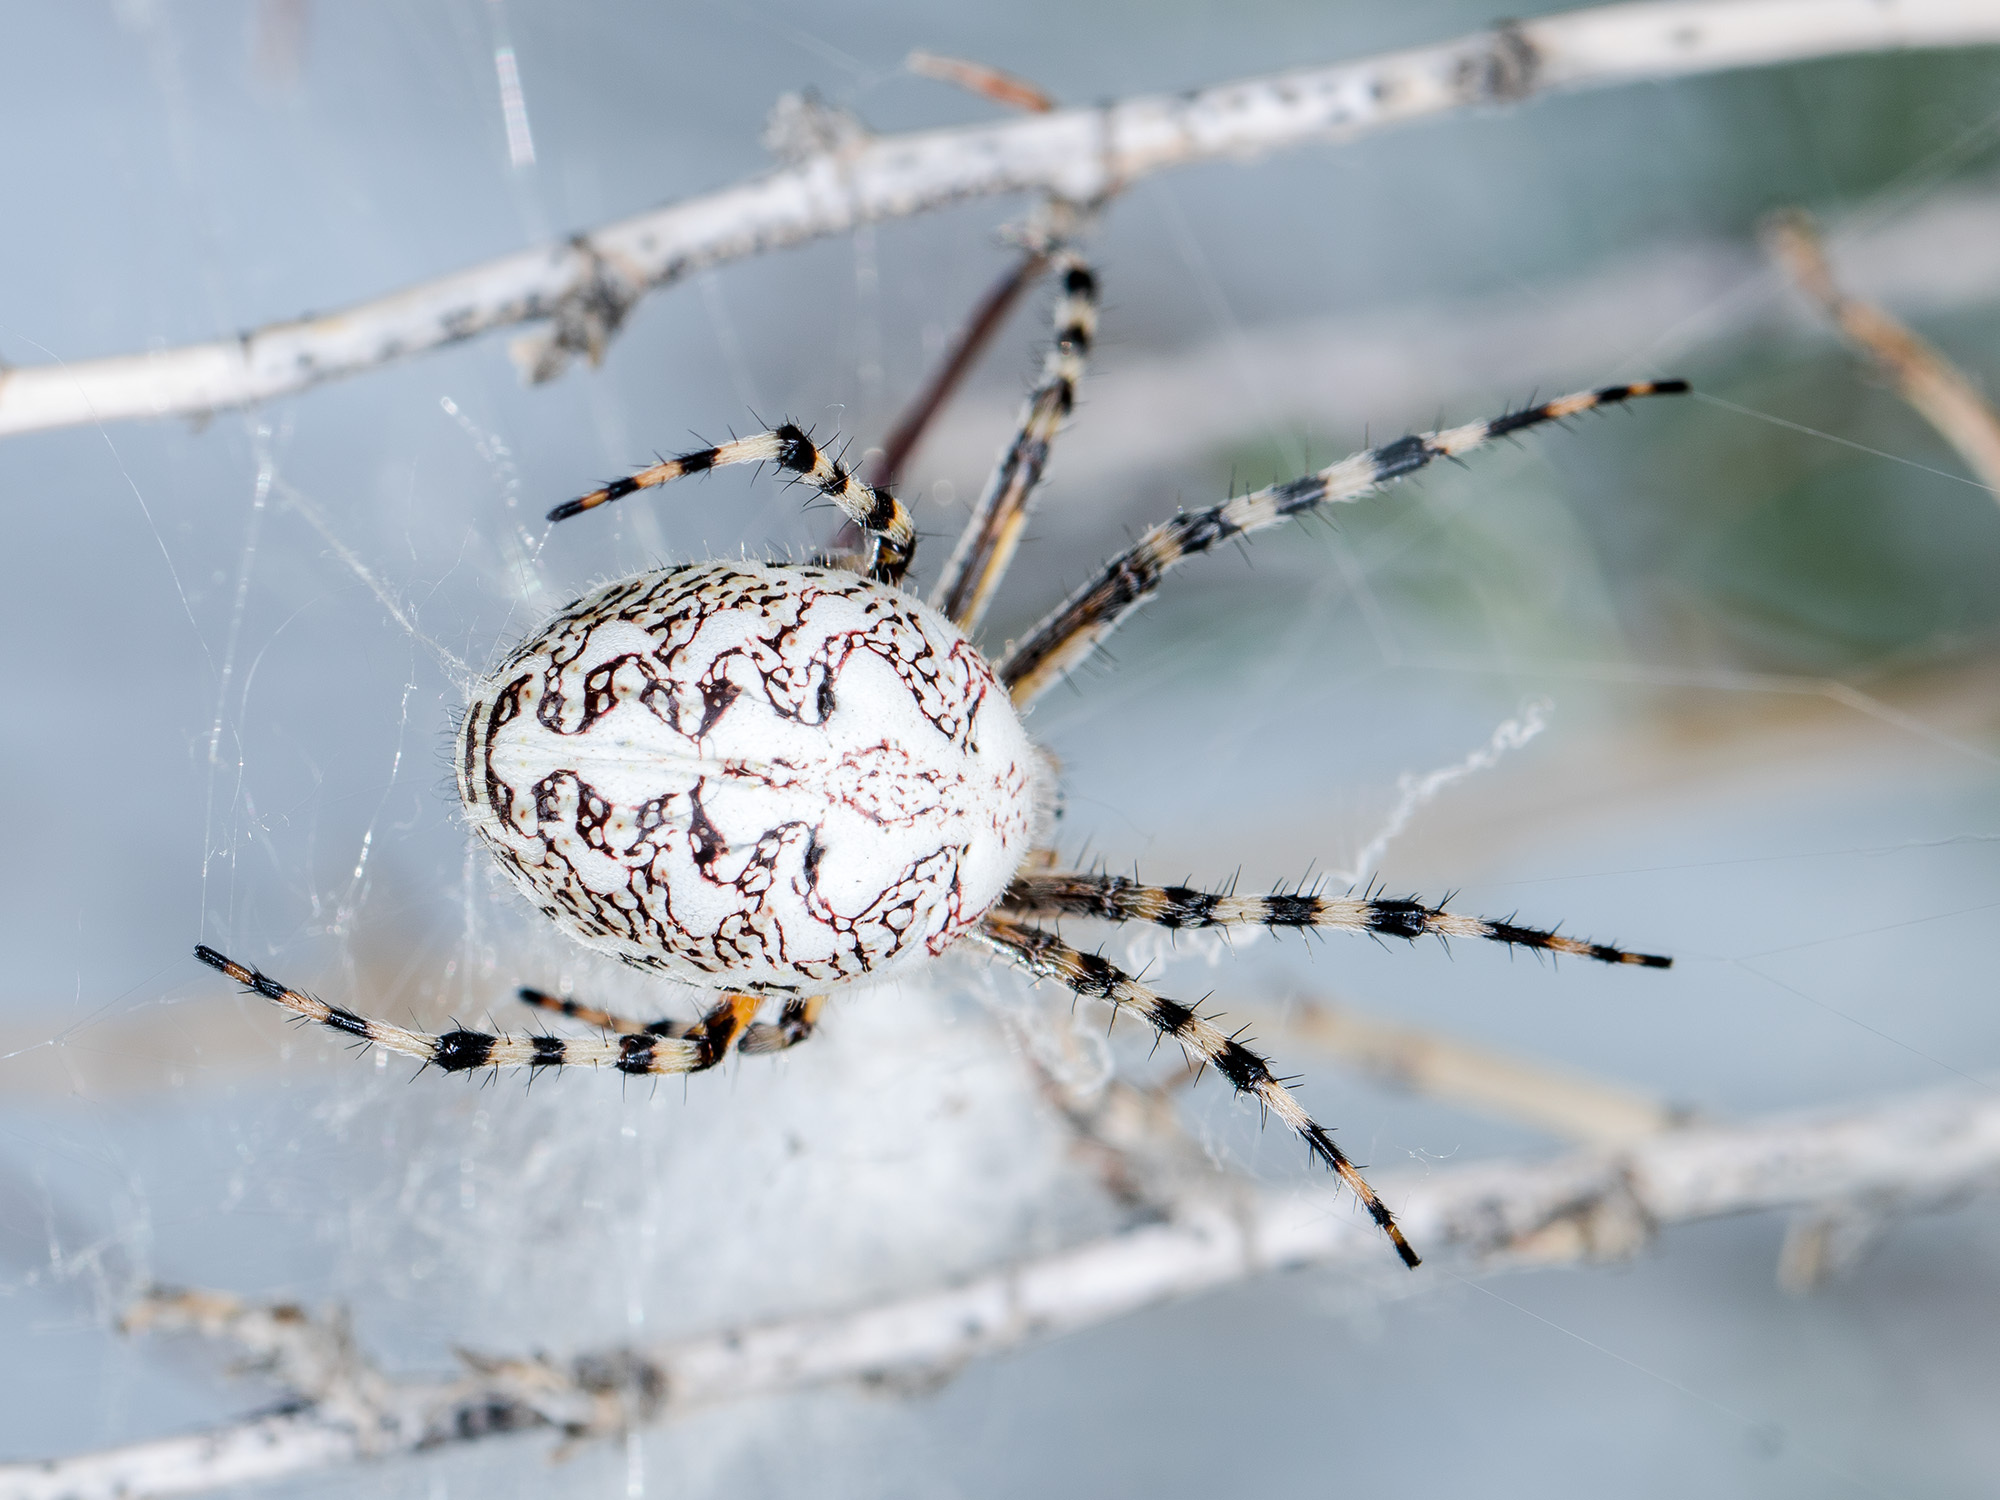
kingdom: Animalia
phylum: Arthropoda
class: Arachnida
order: Araneae
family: Araneidae
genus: Aculepeira
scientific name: Aculepeira armida
